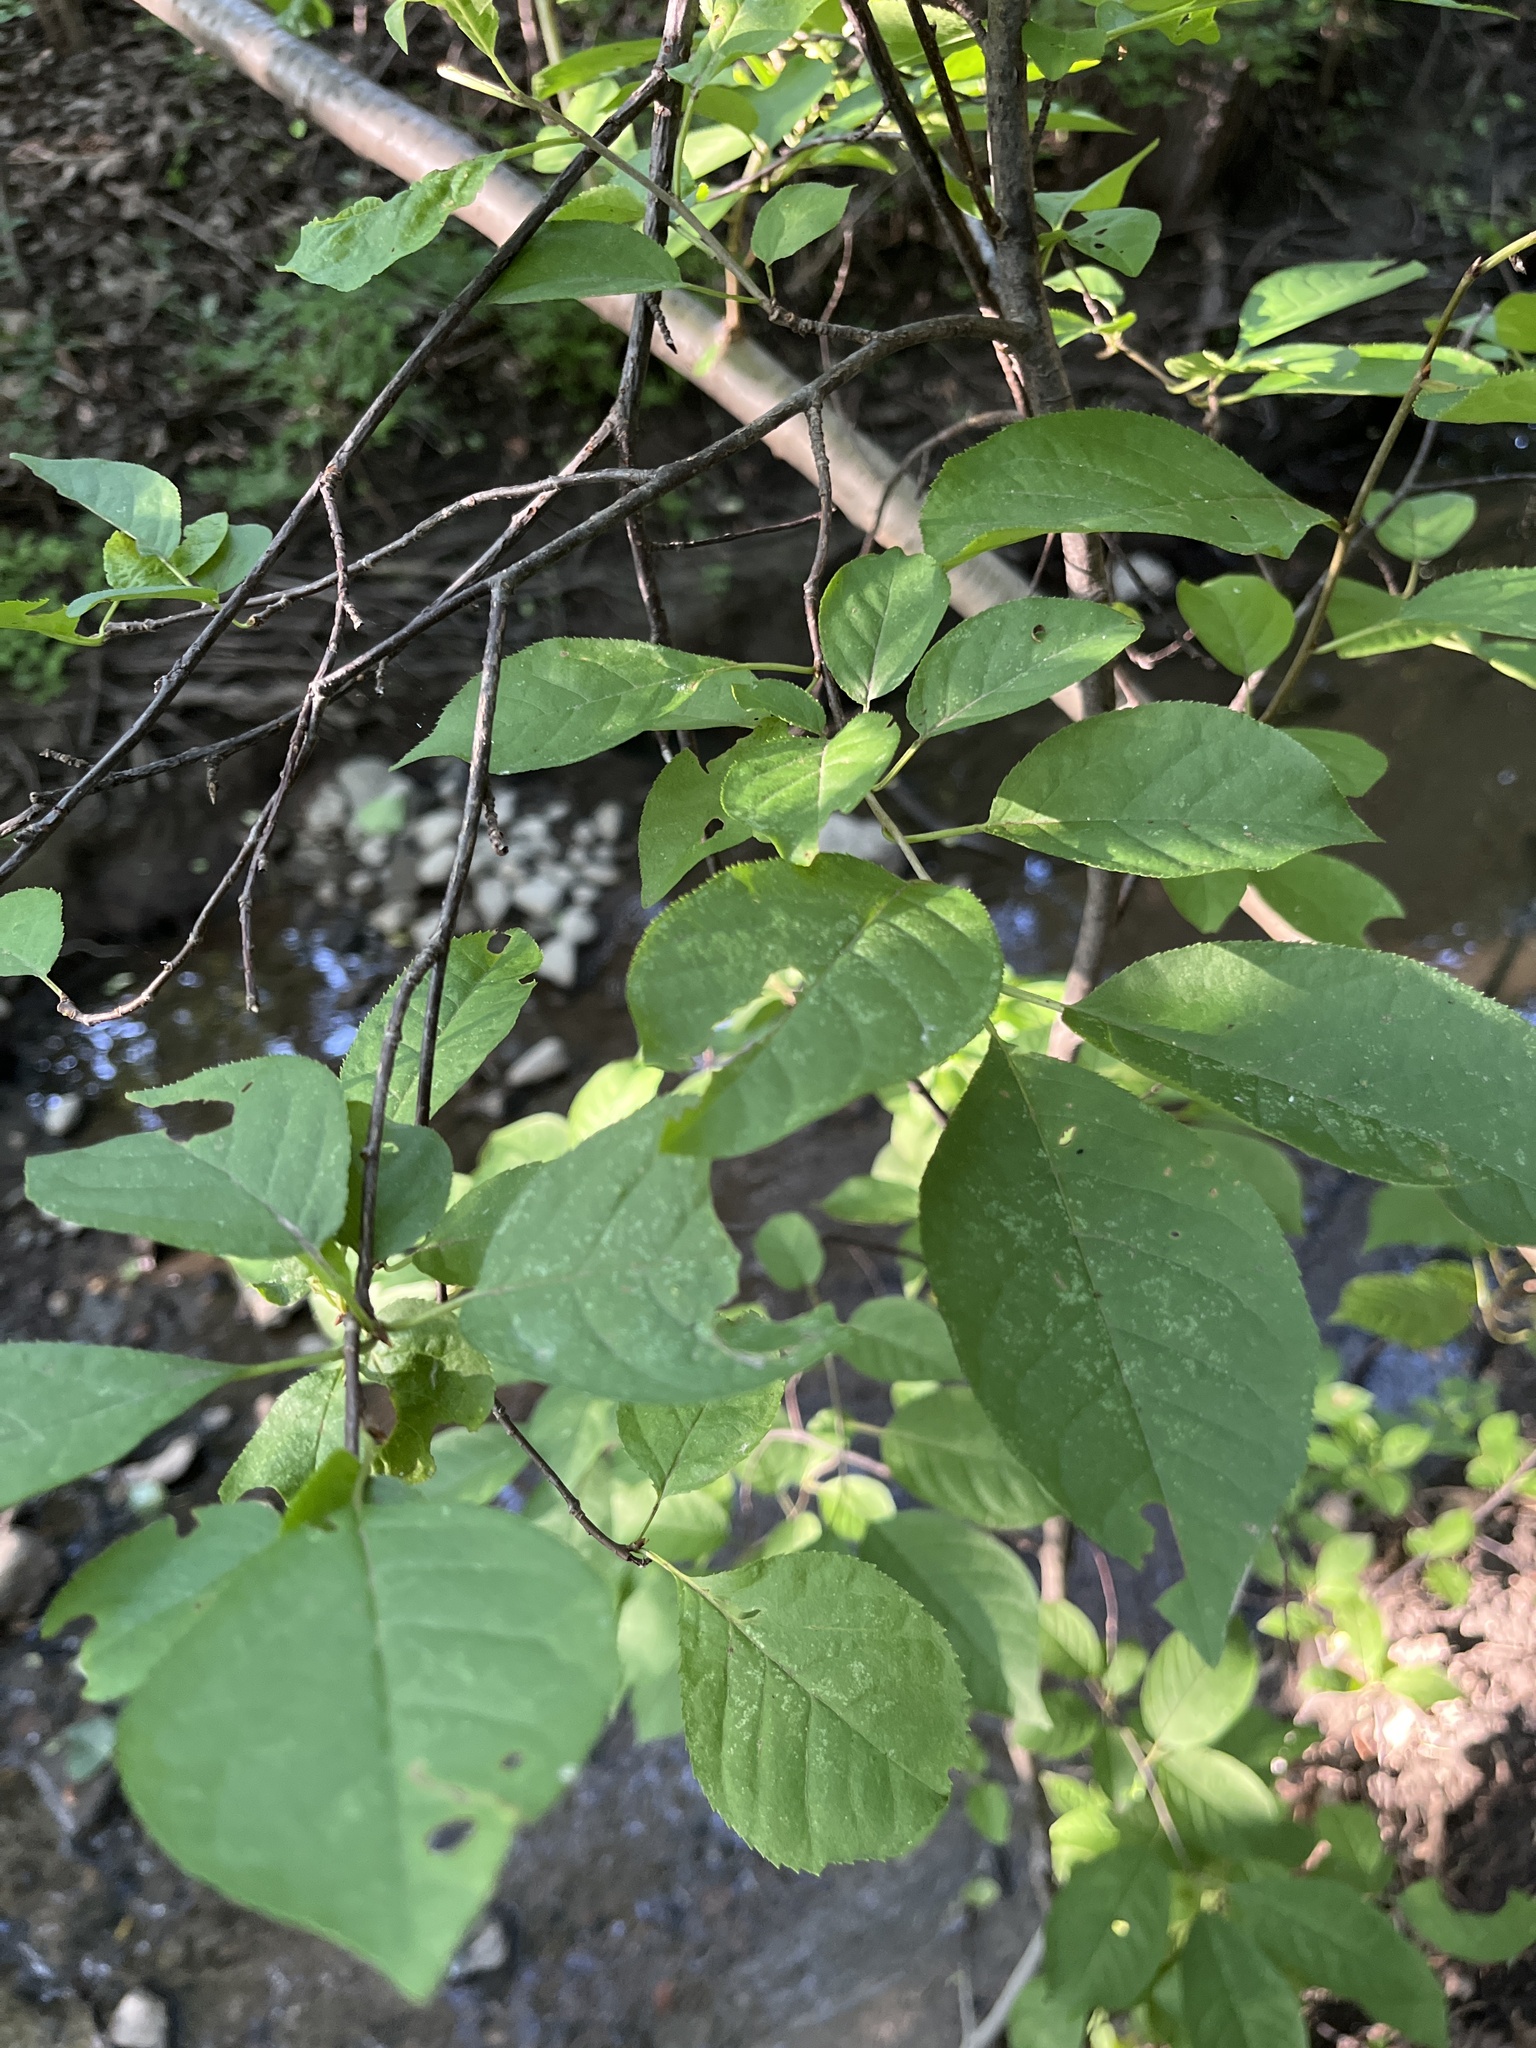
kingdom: Plantae
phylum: Tracheophyta
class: Magnoliopsida
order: Rosales
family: Rosaceae
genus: Prunus
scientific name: Prunus virginiana
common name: Chokecherry
